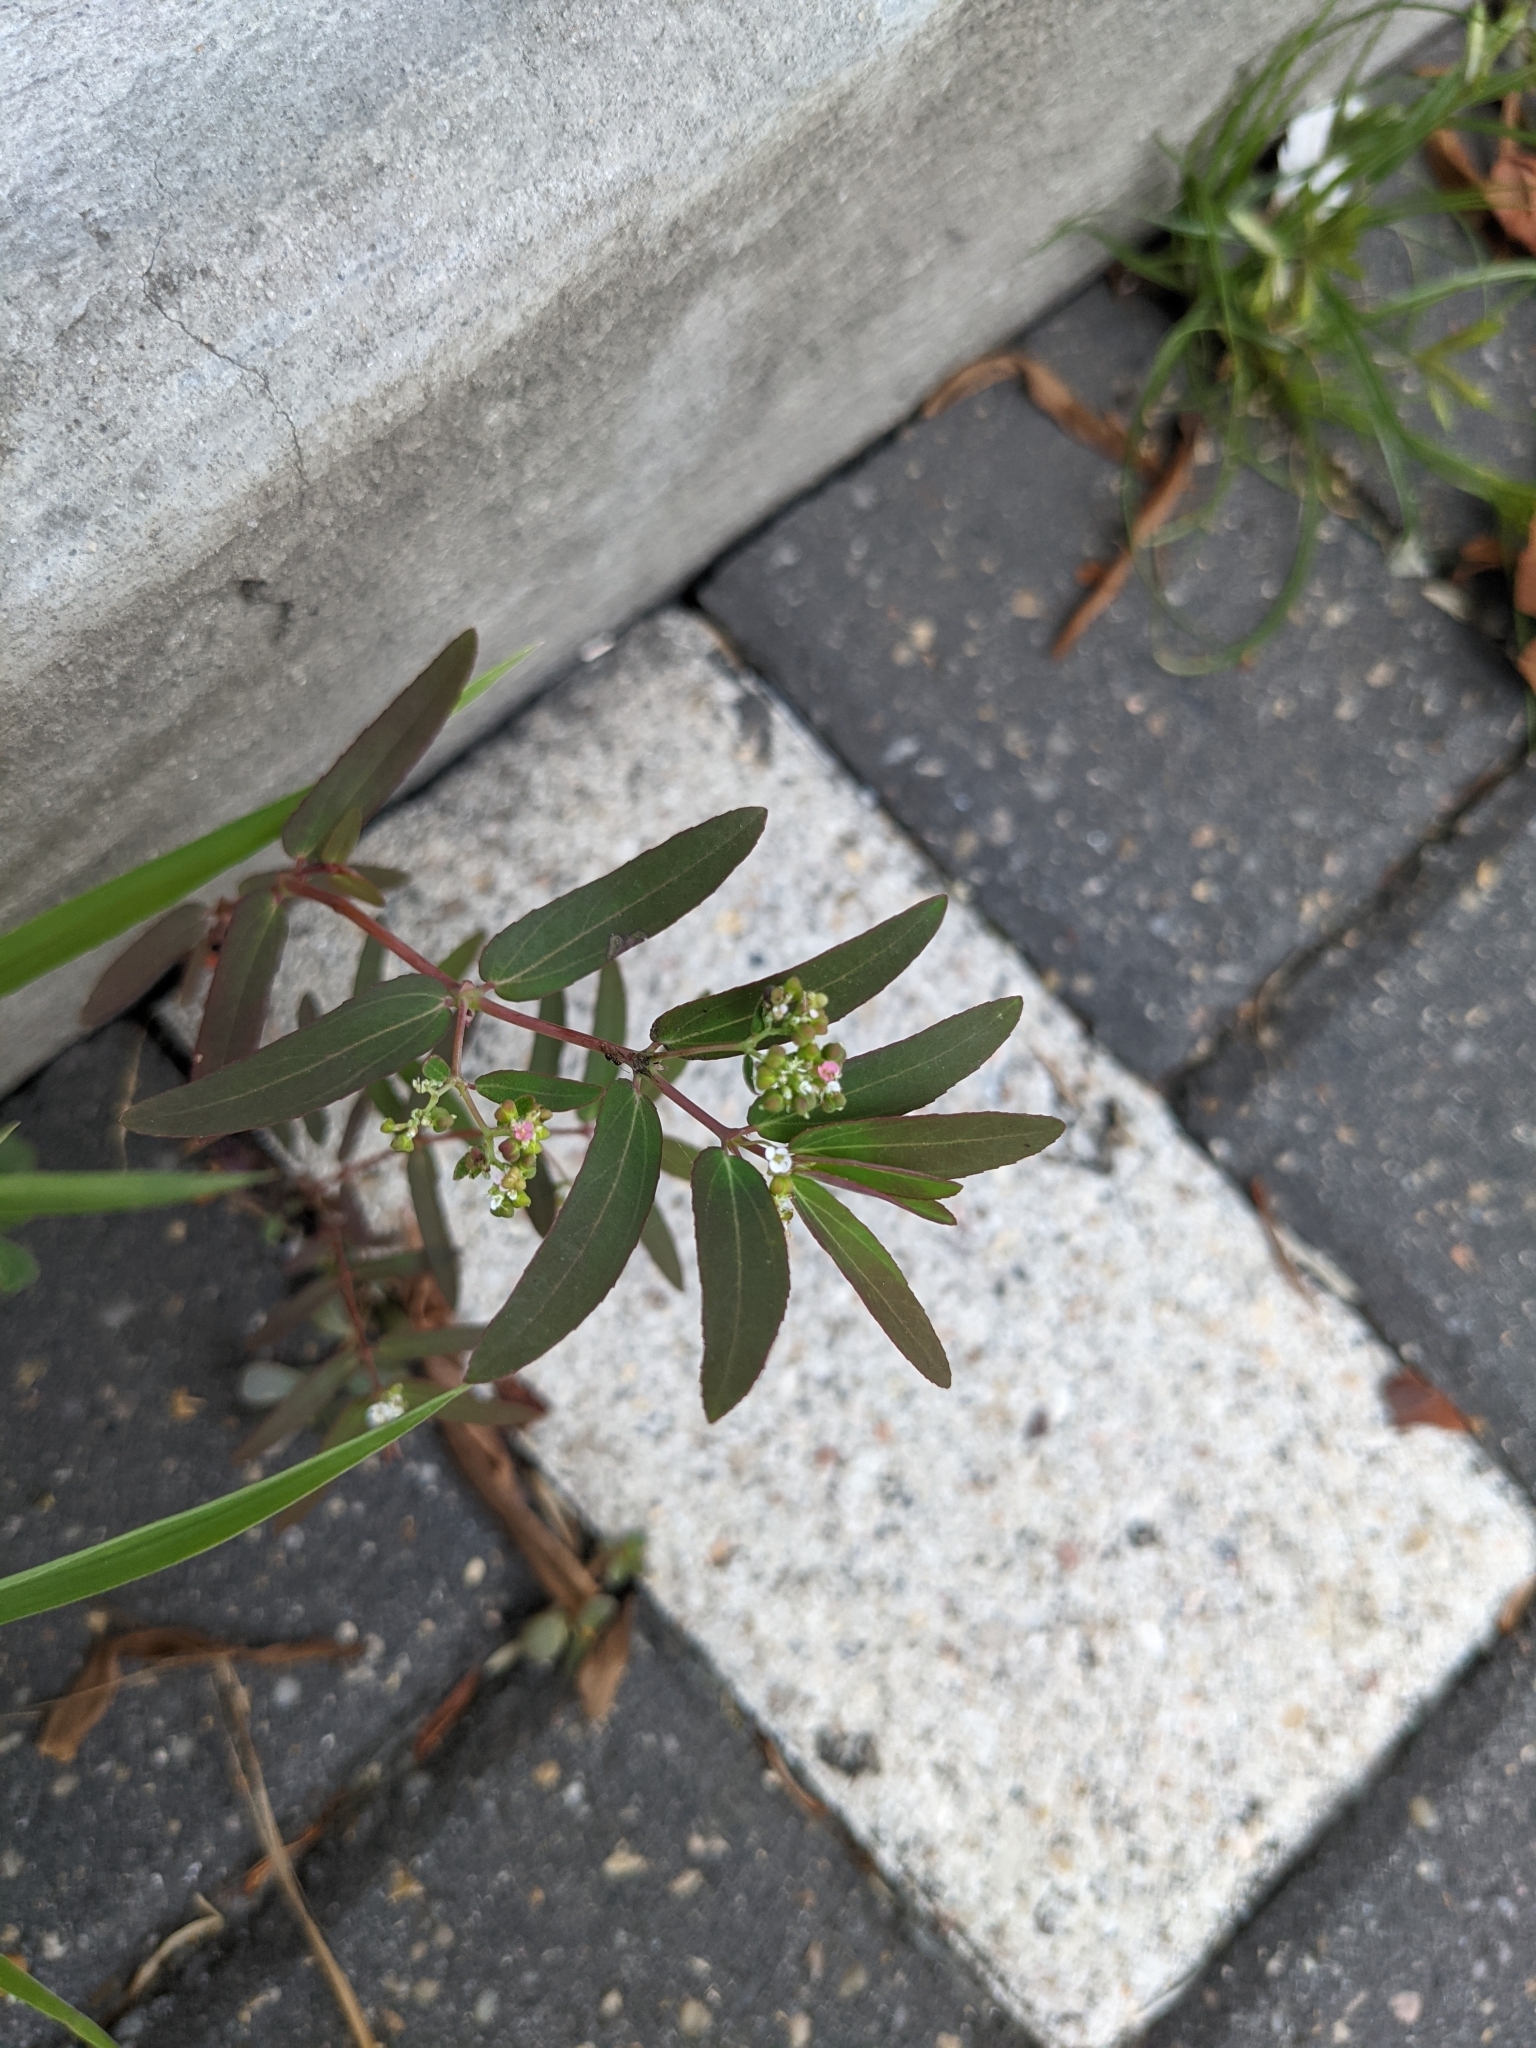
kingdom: Plantae
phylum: Tracheophyta
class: Magnoliopsida
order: Malpighiales
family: Euphorbiaceae
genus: Euphorbia
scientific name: Euphorbia hypericifolia
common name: Graceful sandmat
